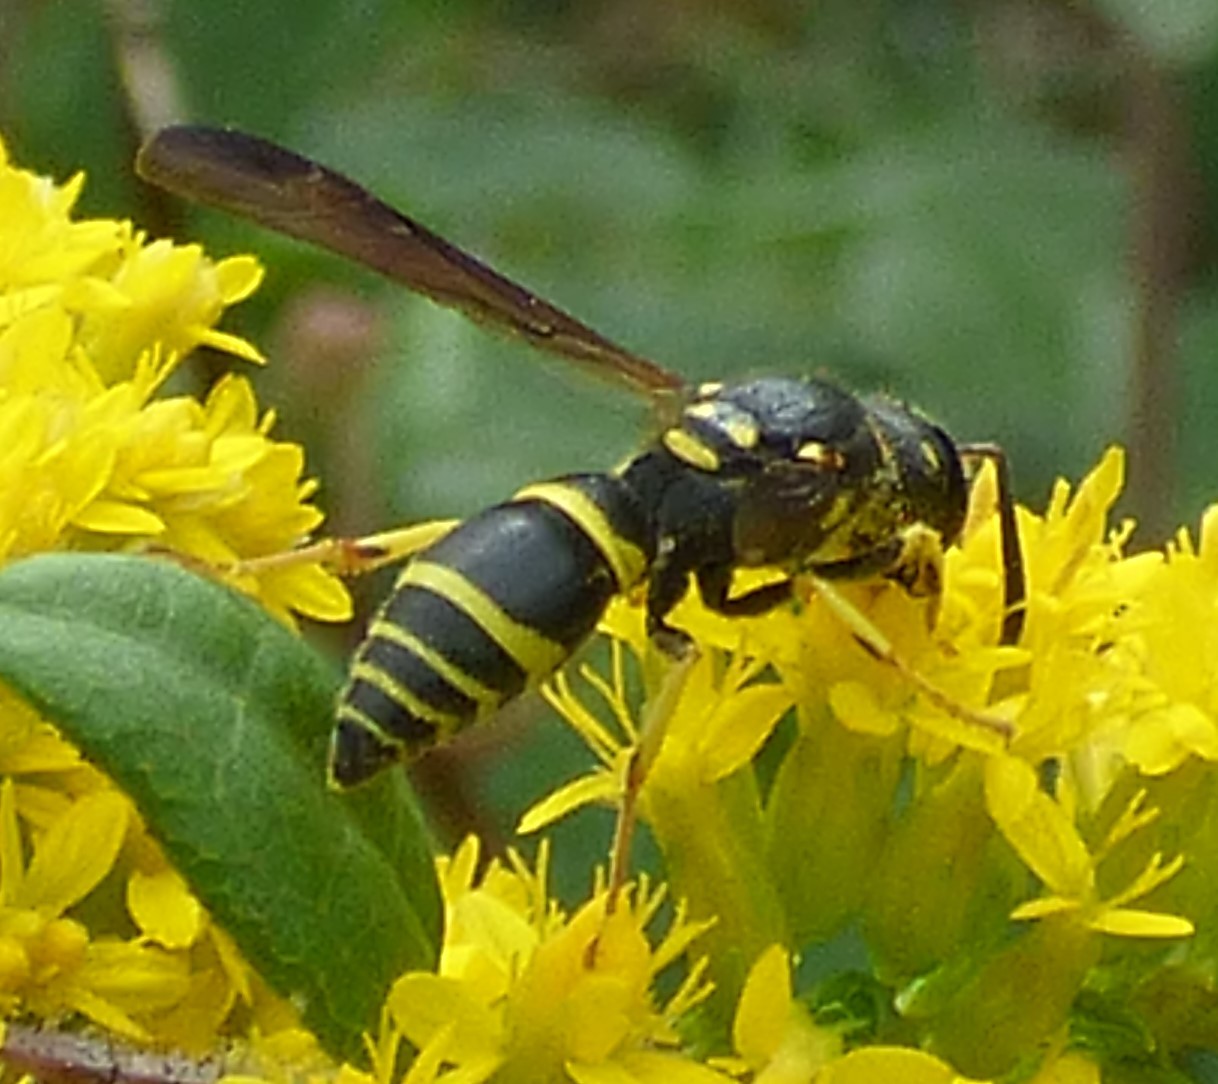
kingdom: Animalia
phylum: Arthropoda
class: Insecta
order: Hymenoptera
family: Vespidae
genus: Ancistrocerus
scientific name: Ancistrocerus adiabatus
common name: Bramble mason wasp
